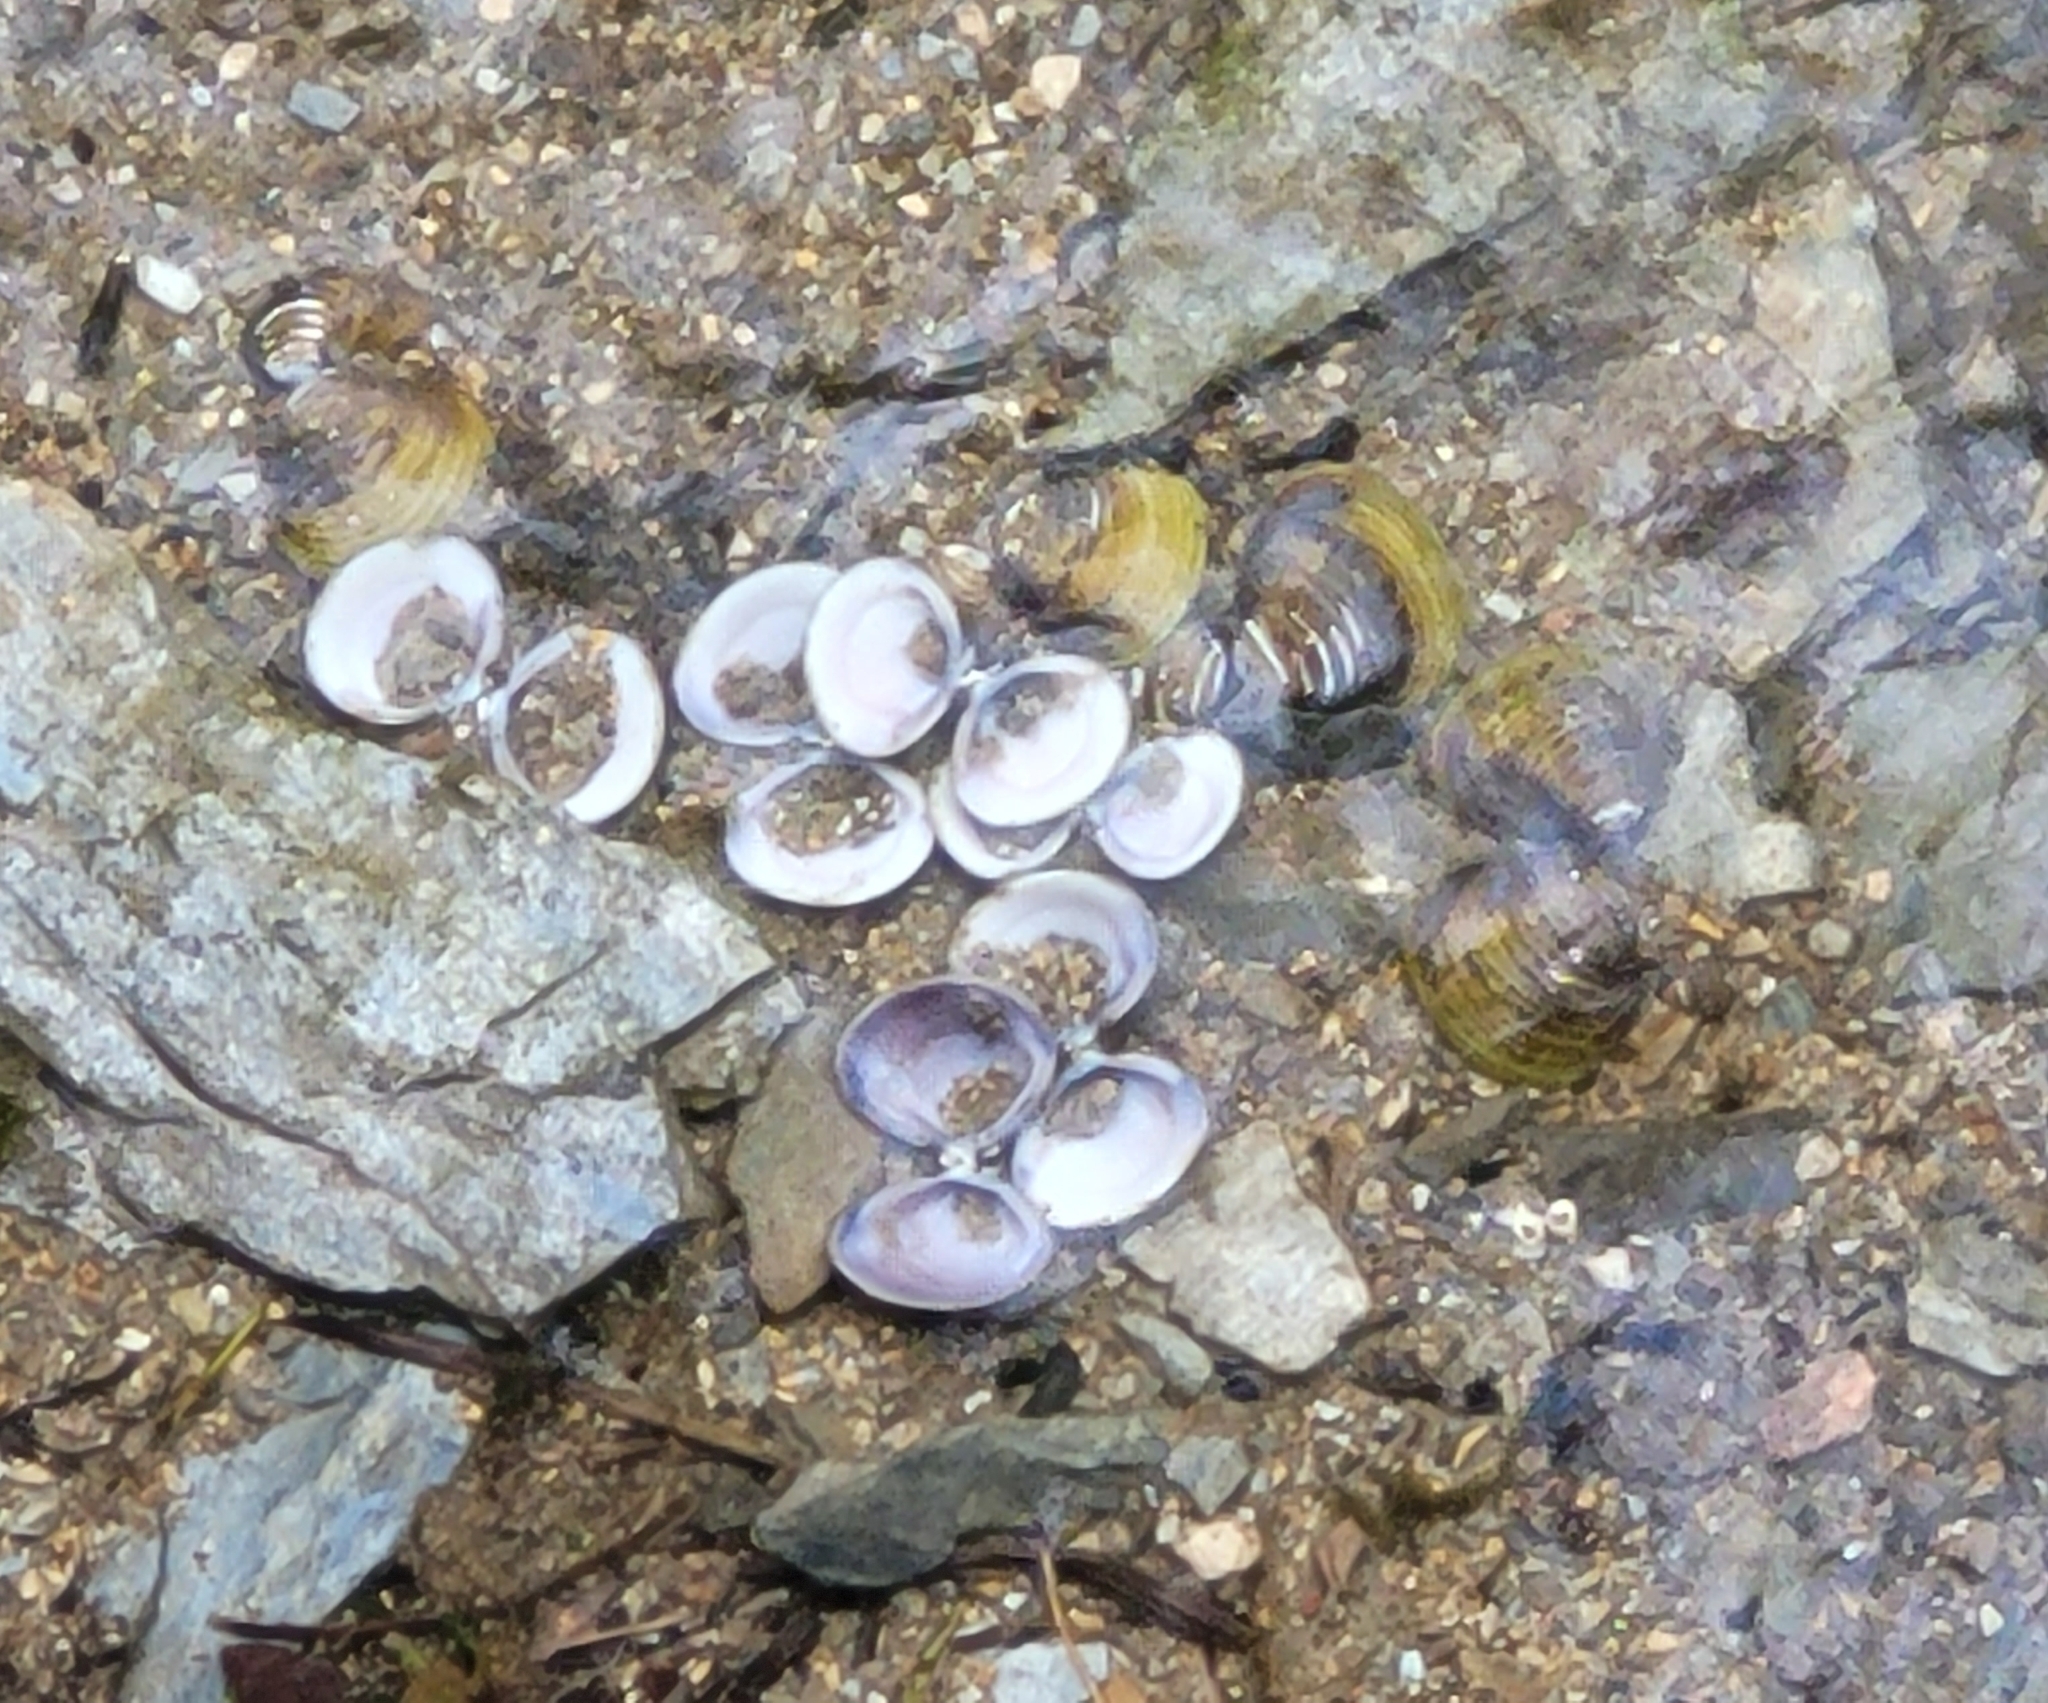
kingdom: Animalia
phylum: Mollusca
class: Bivalvia
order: Venerida
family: Cyrenidae
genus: Corbicula
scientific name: Corbicula fluminea
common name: Asian clam
